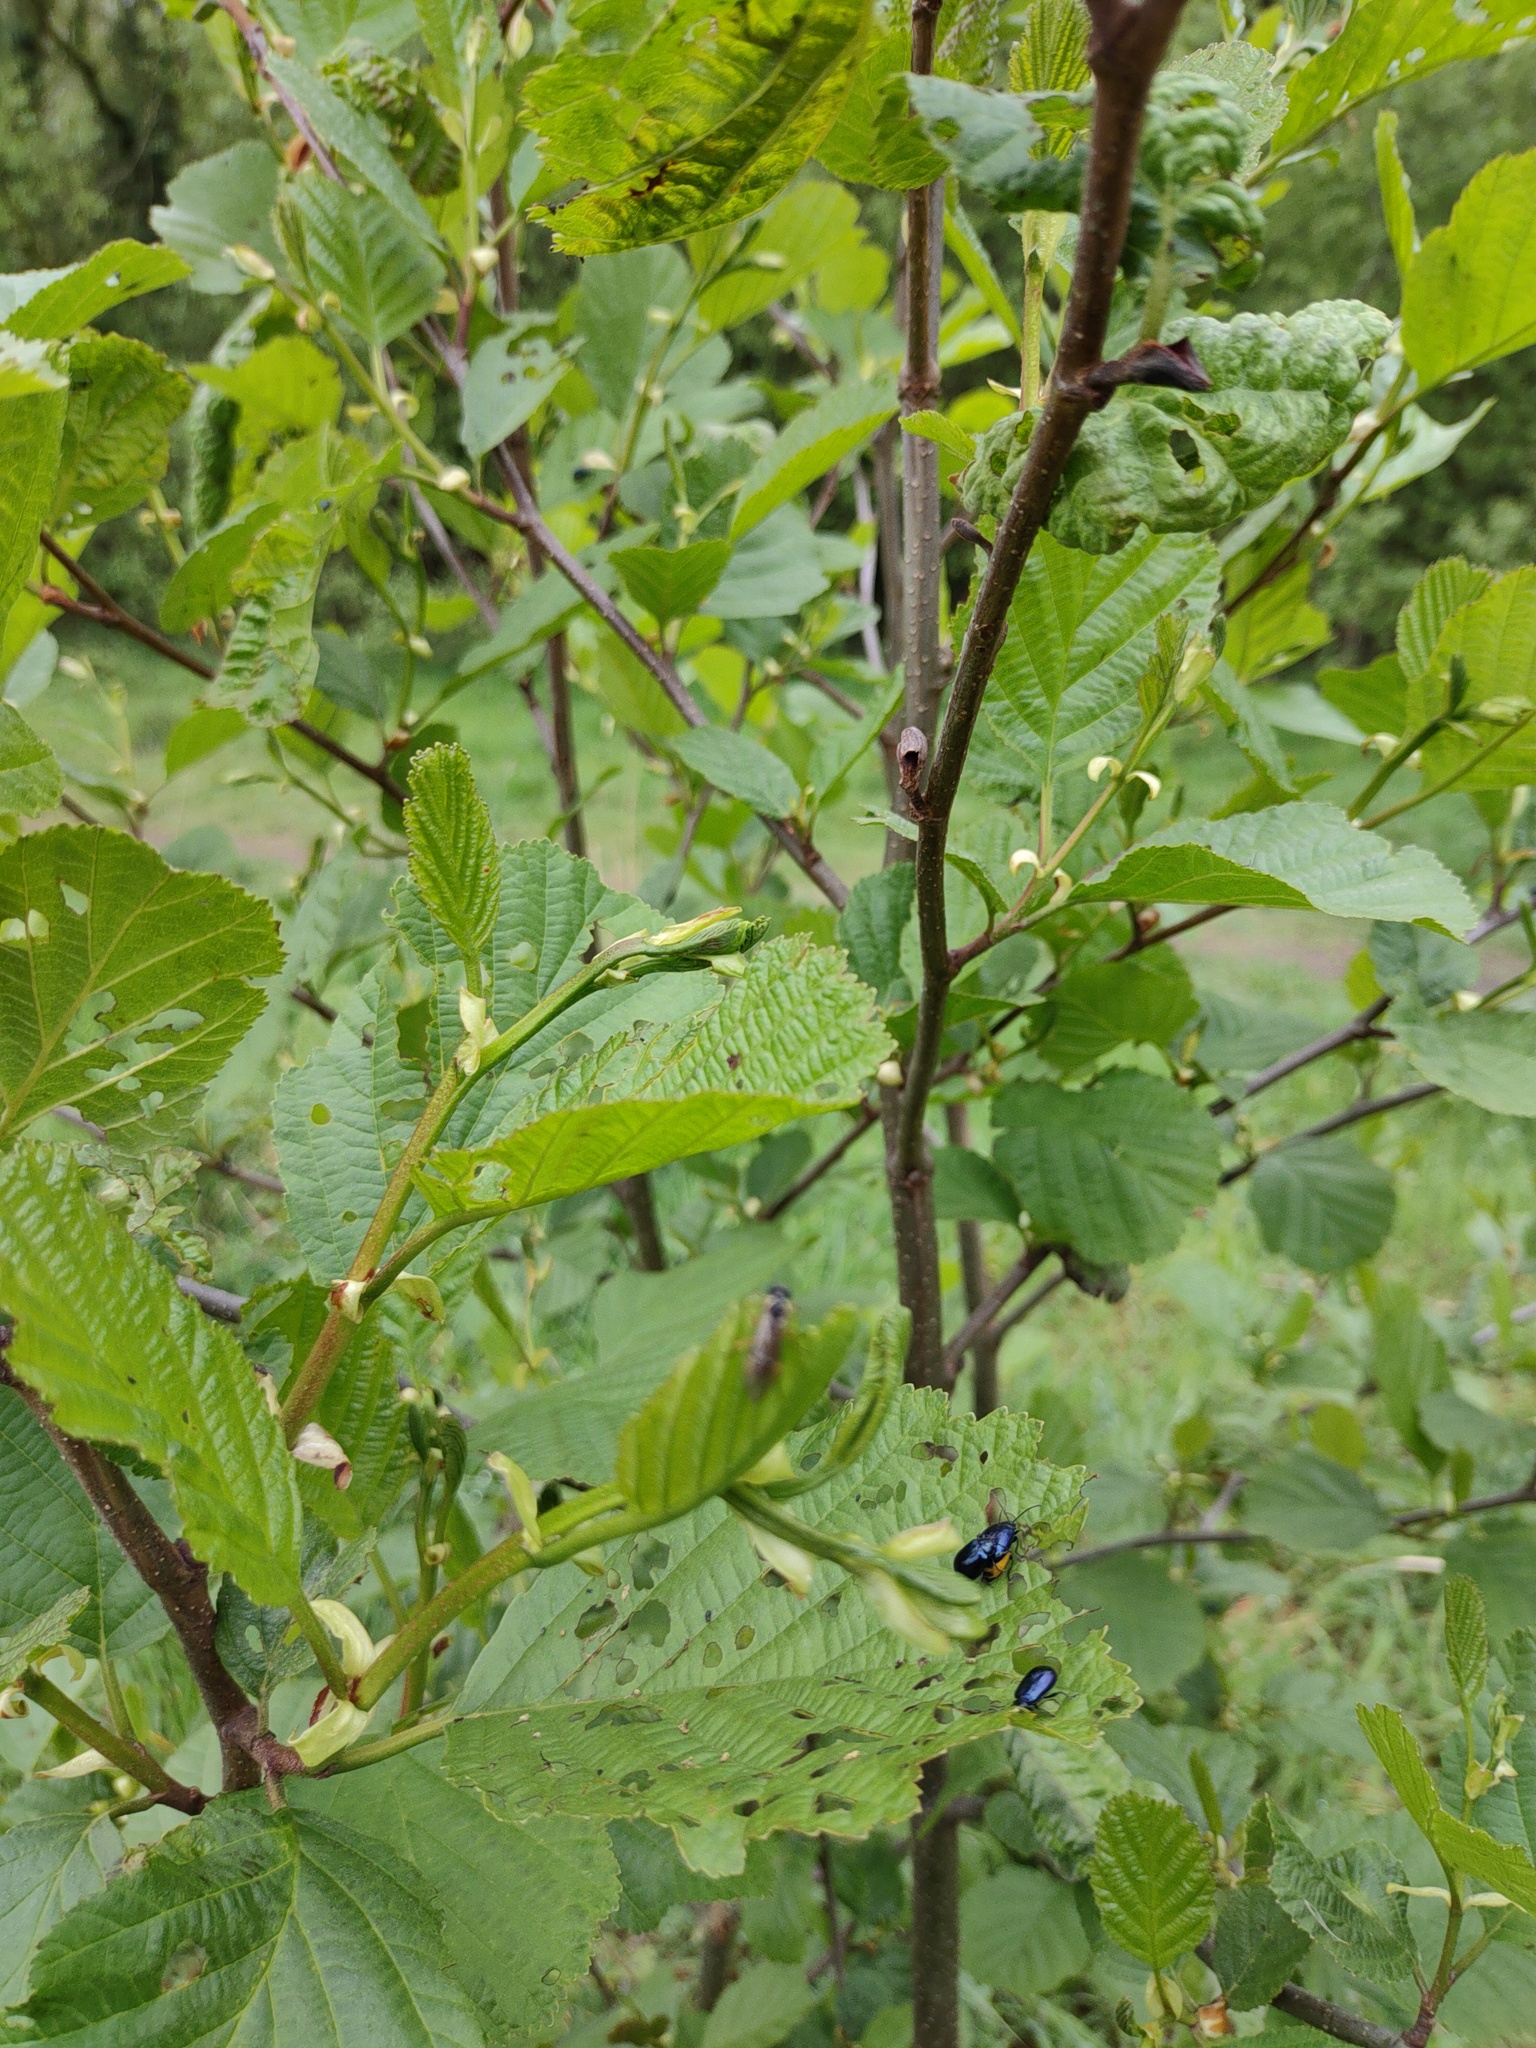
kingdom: Plantae
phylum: Tracheophyta
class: Magnoliopsida
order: Fagales
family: Betulaceae
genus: Alnus
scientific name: Alnus glutinosa
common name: Black alder
